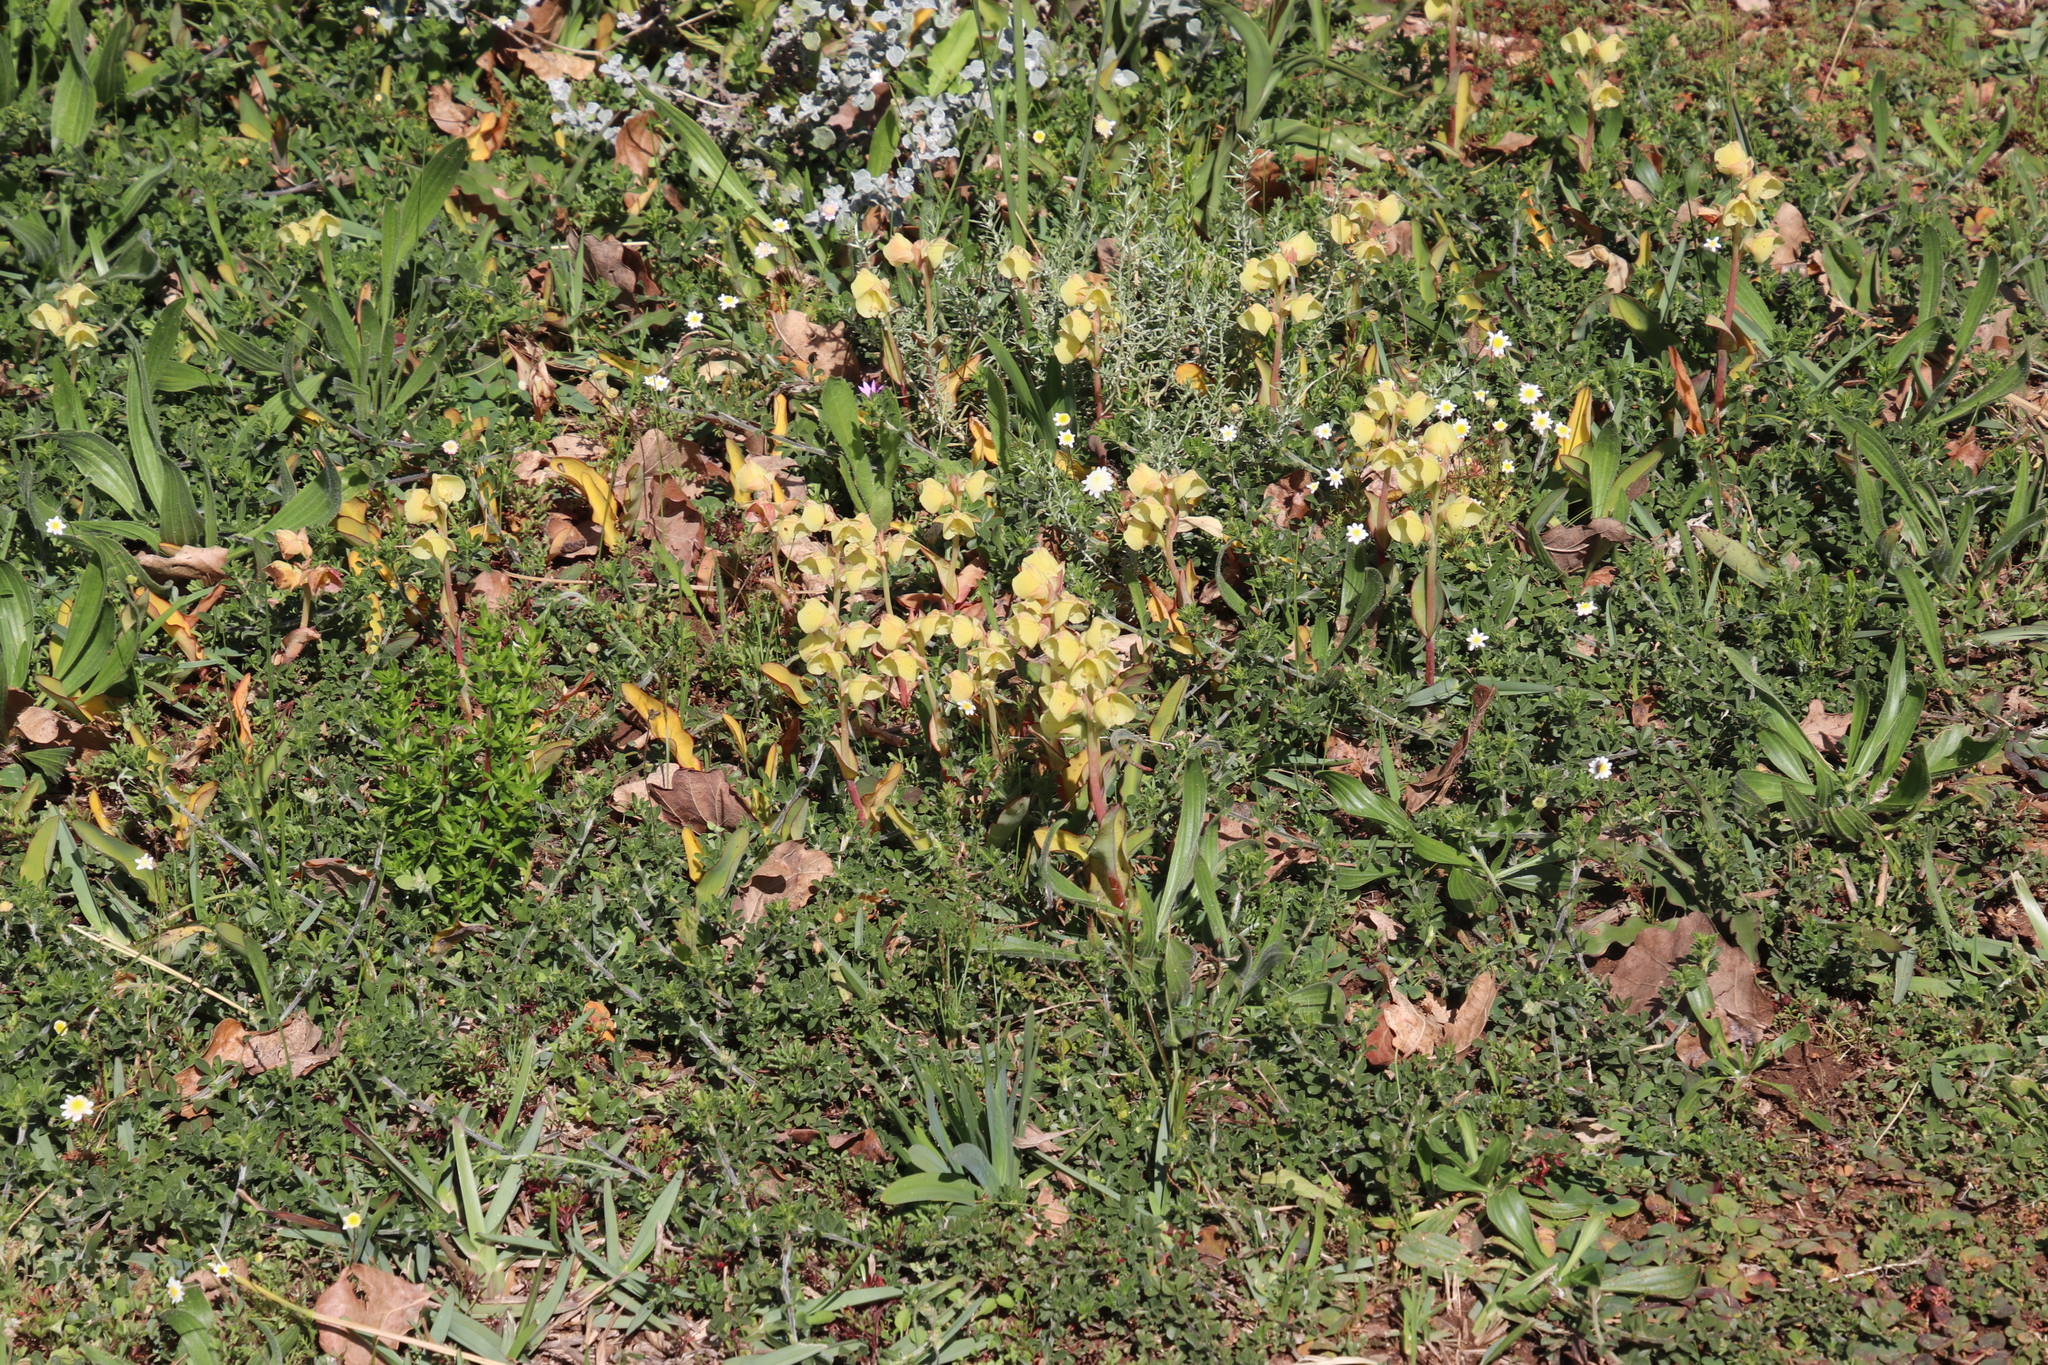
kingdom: Plantae
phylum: Tracheophyta
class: Liliopsida
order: Asparagales
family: Orchidaceae
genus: Pterygodium
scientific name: Pterygodium catholicum
